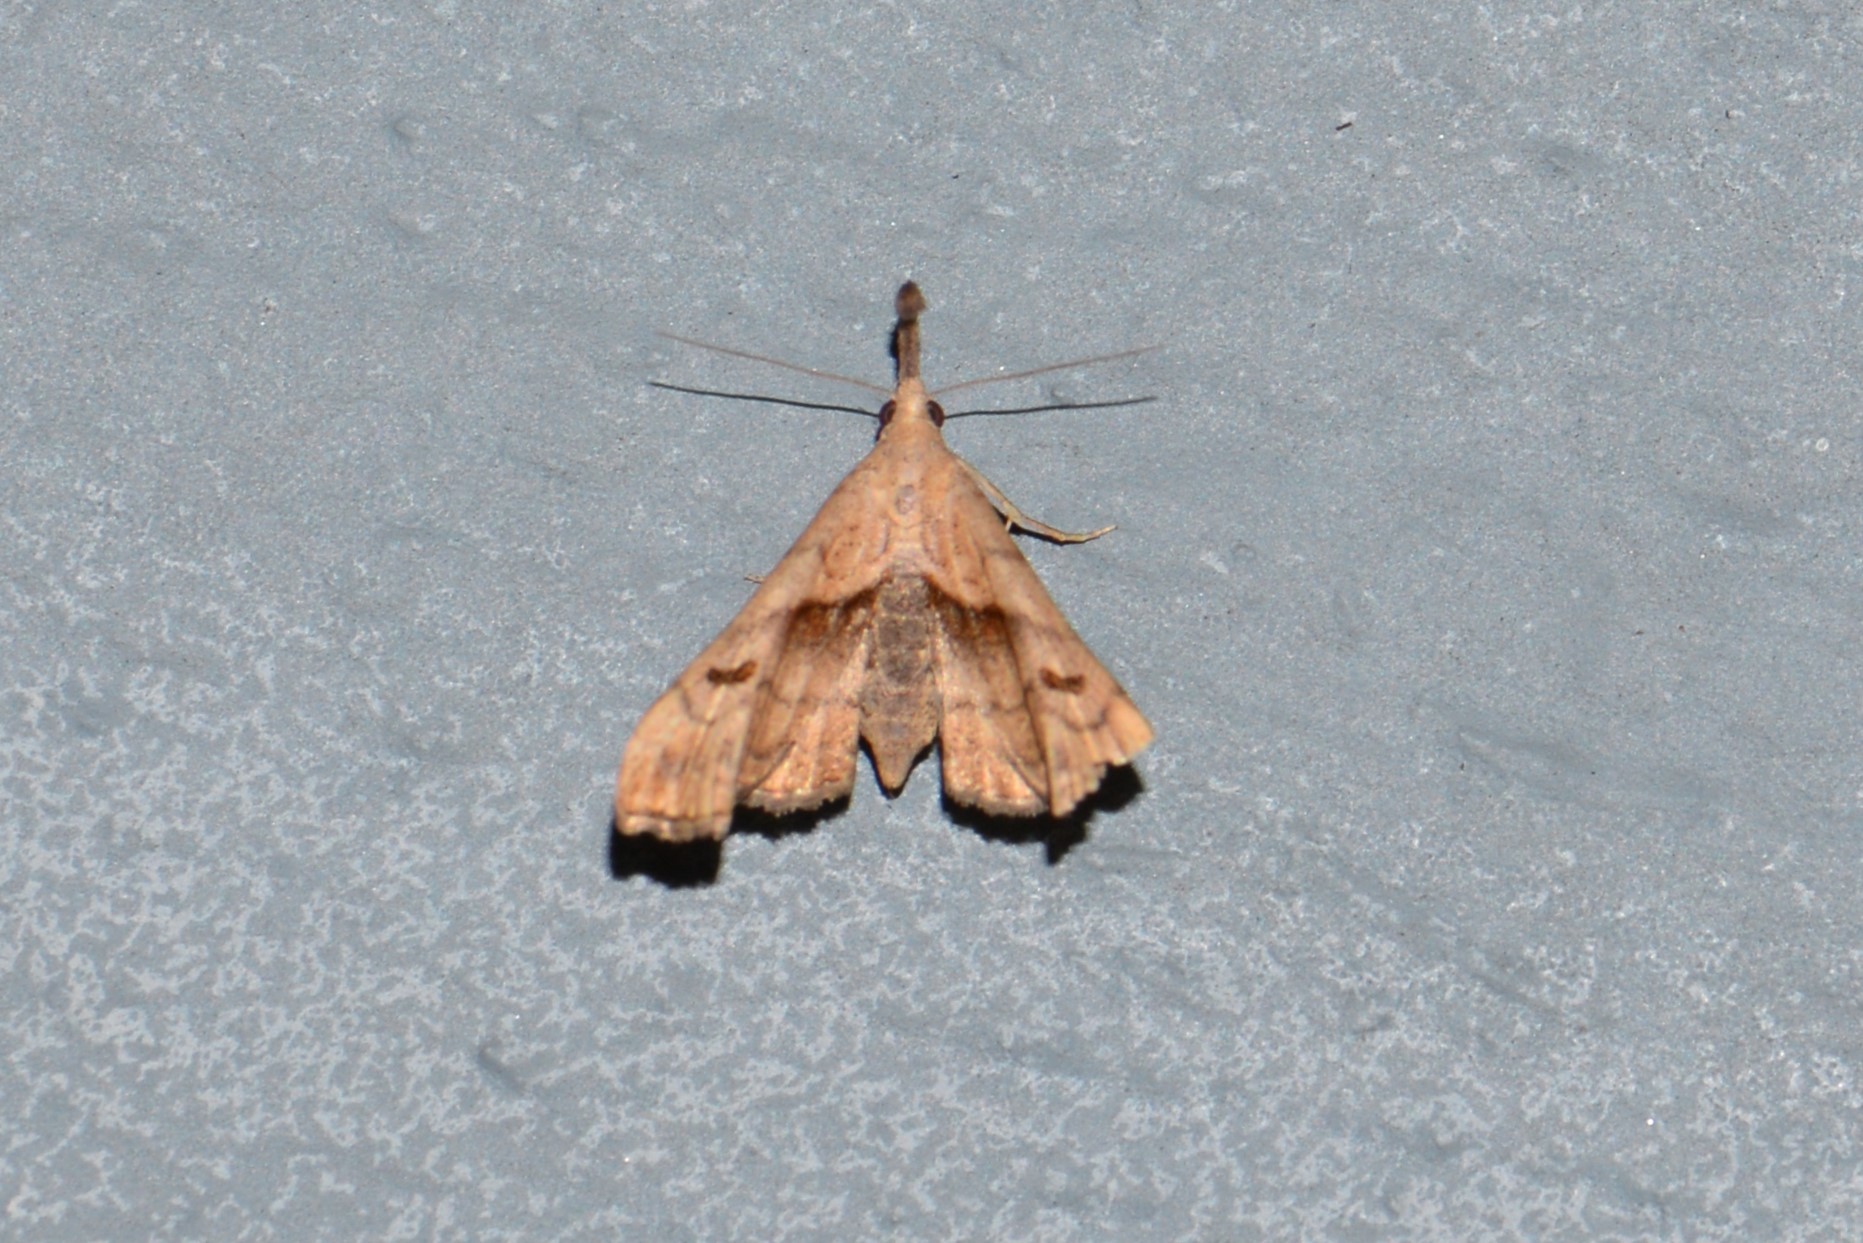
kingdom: Animalia
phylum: Arthropoda
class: Insecta
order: Lepidoptera
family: Erebidae
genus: Palthis
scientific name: Palthis angulalis
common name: Dark-spotted palthis moth
